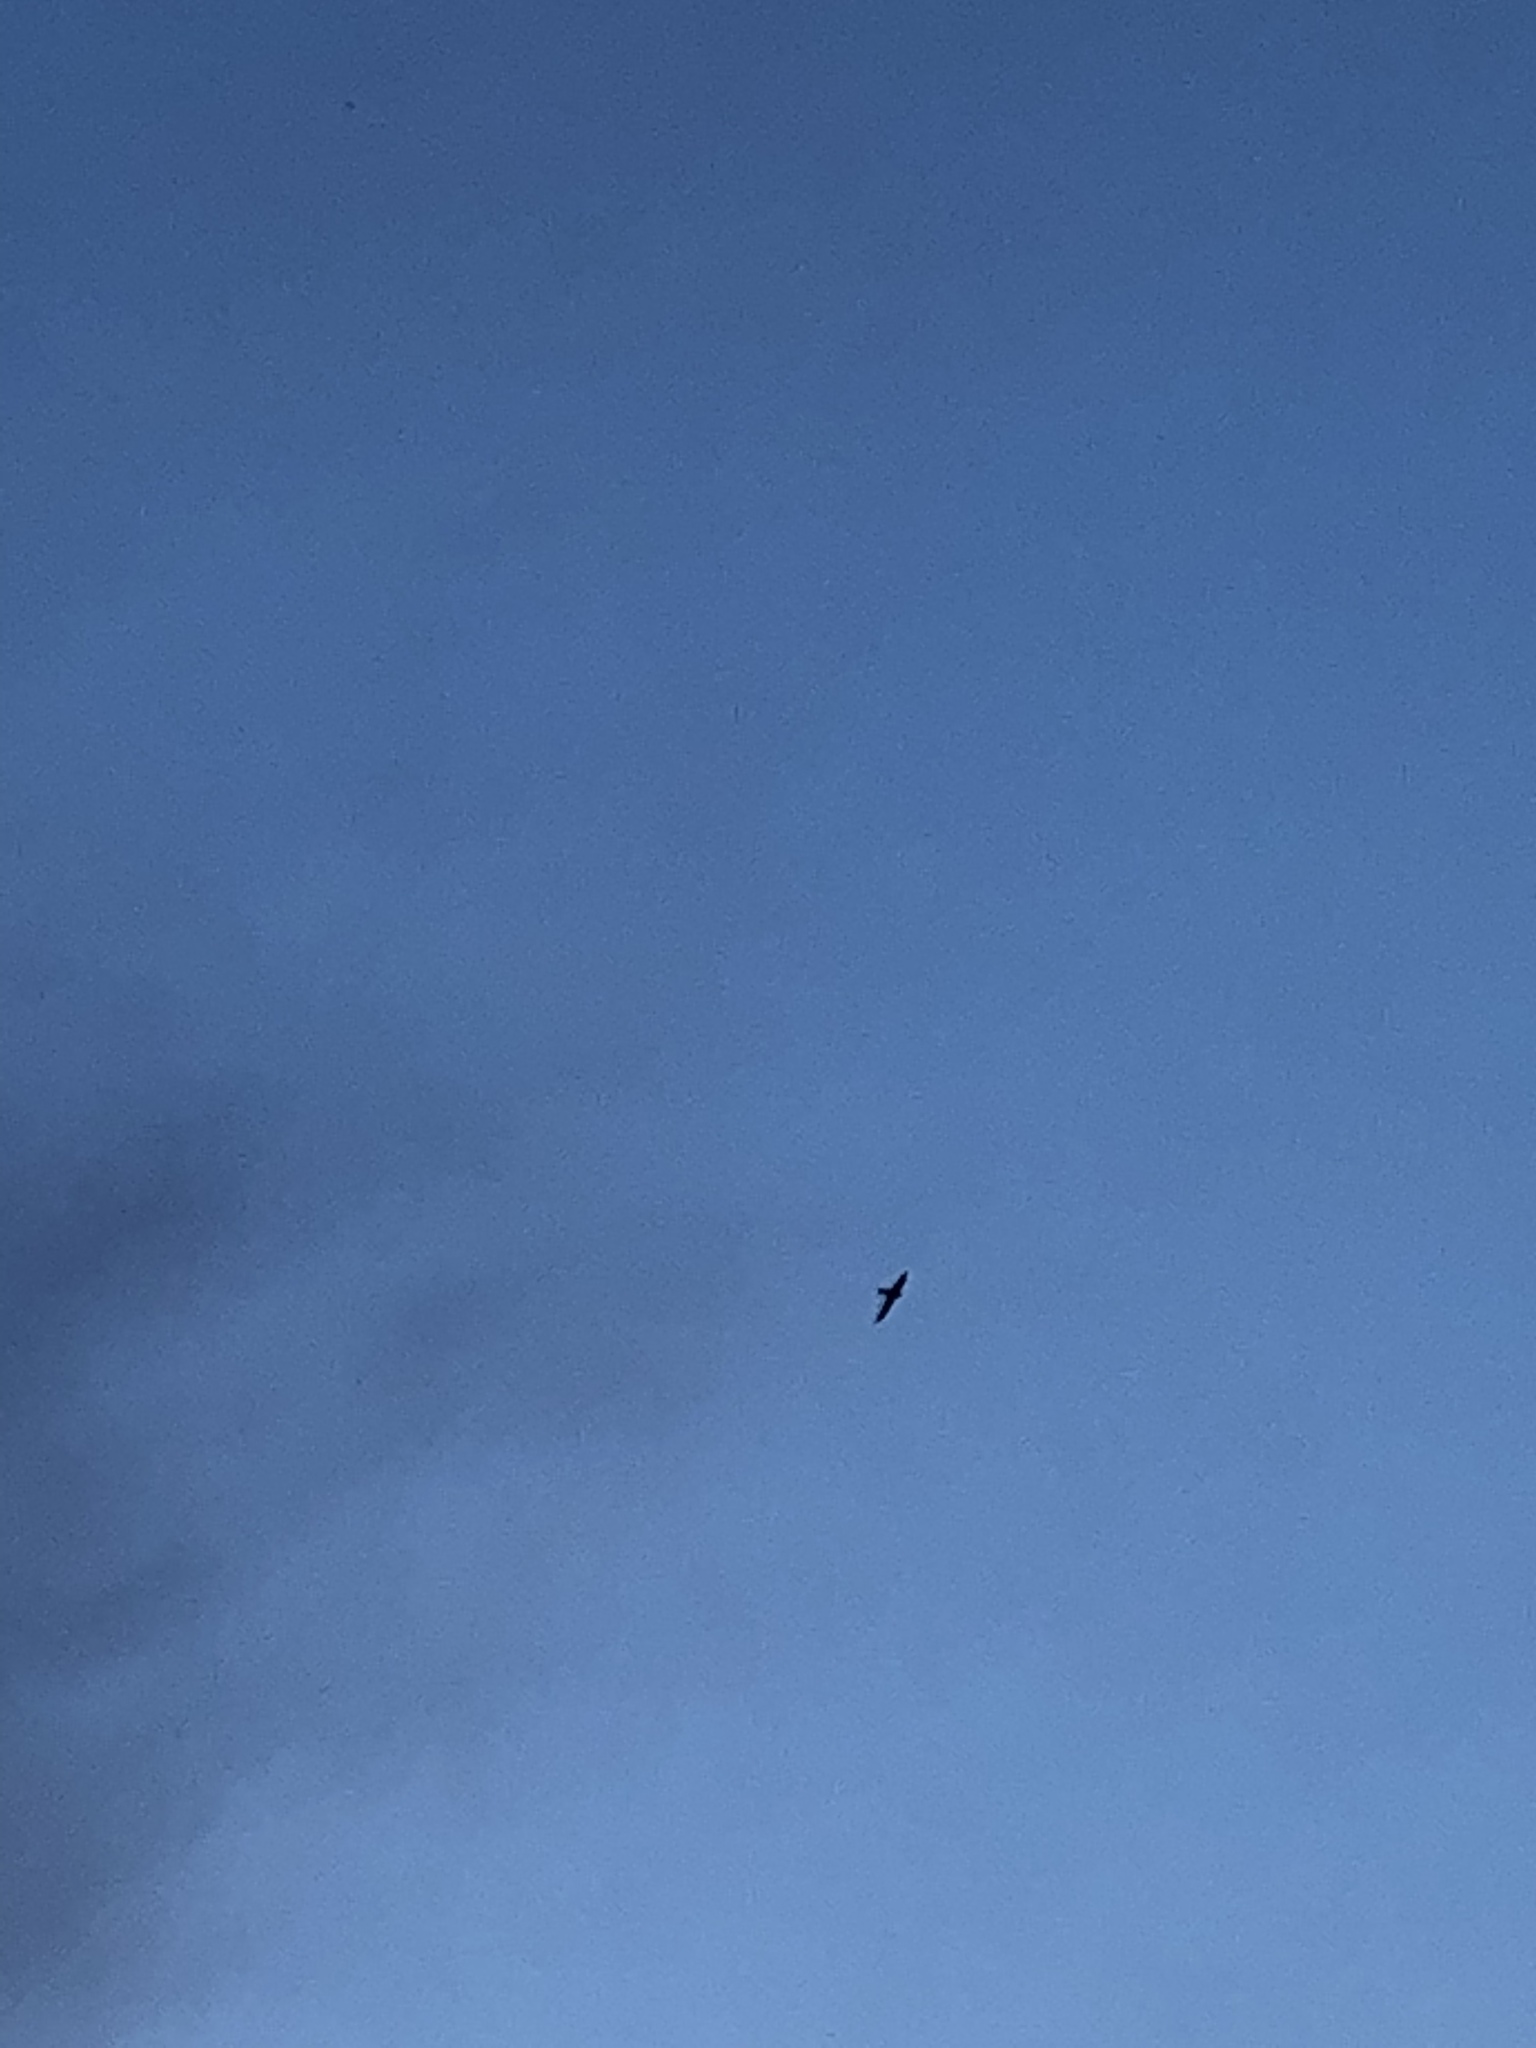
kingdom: Animalia
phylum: Chordata
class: Aves
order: Apodiformes
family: Apodidae
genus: Apus
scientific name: Apus apus
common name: Common swift
